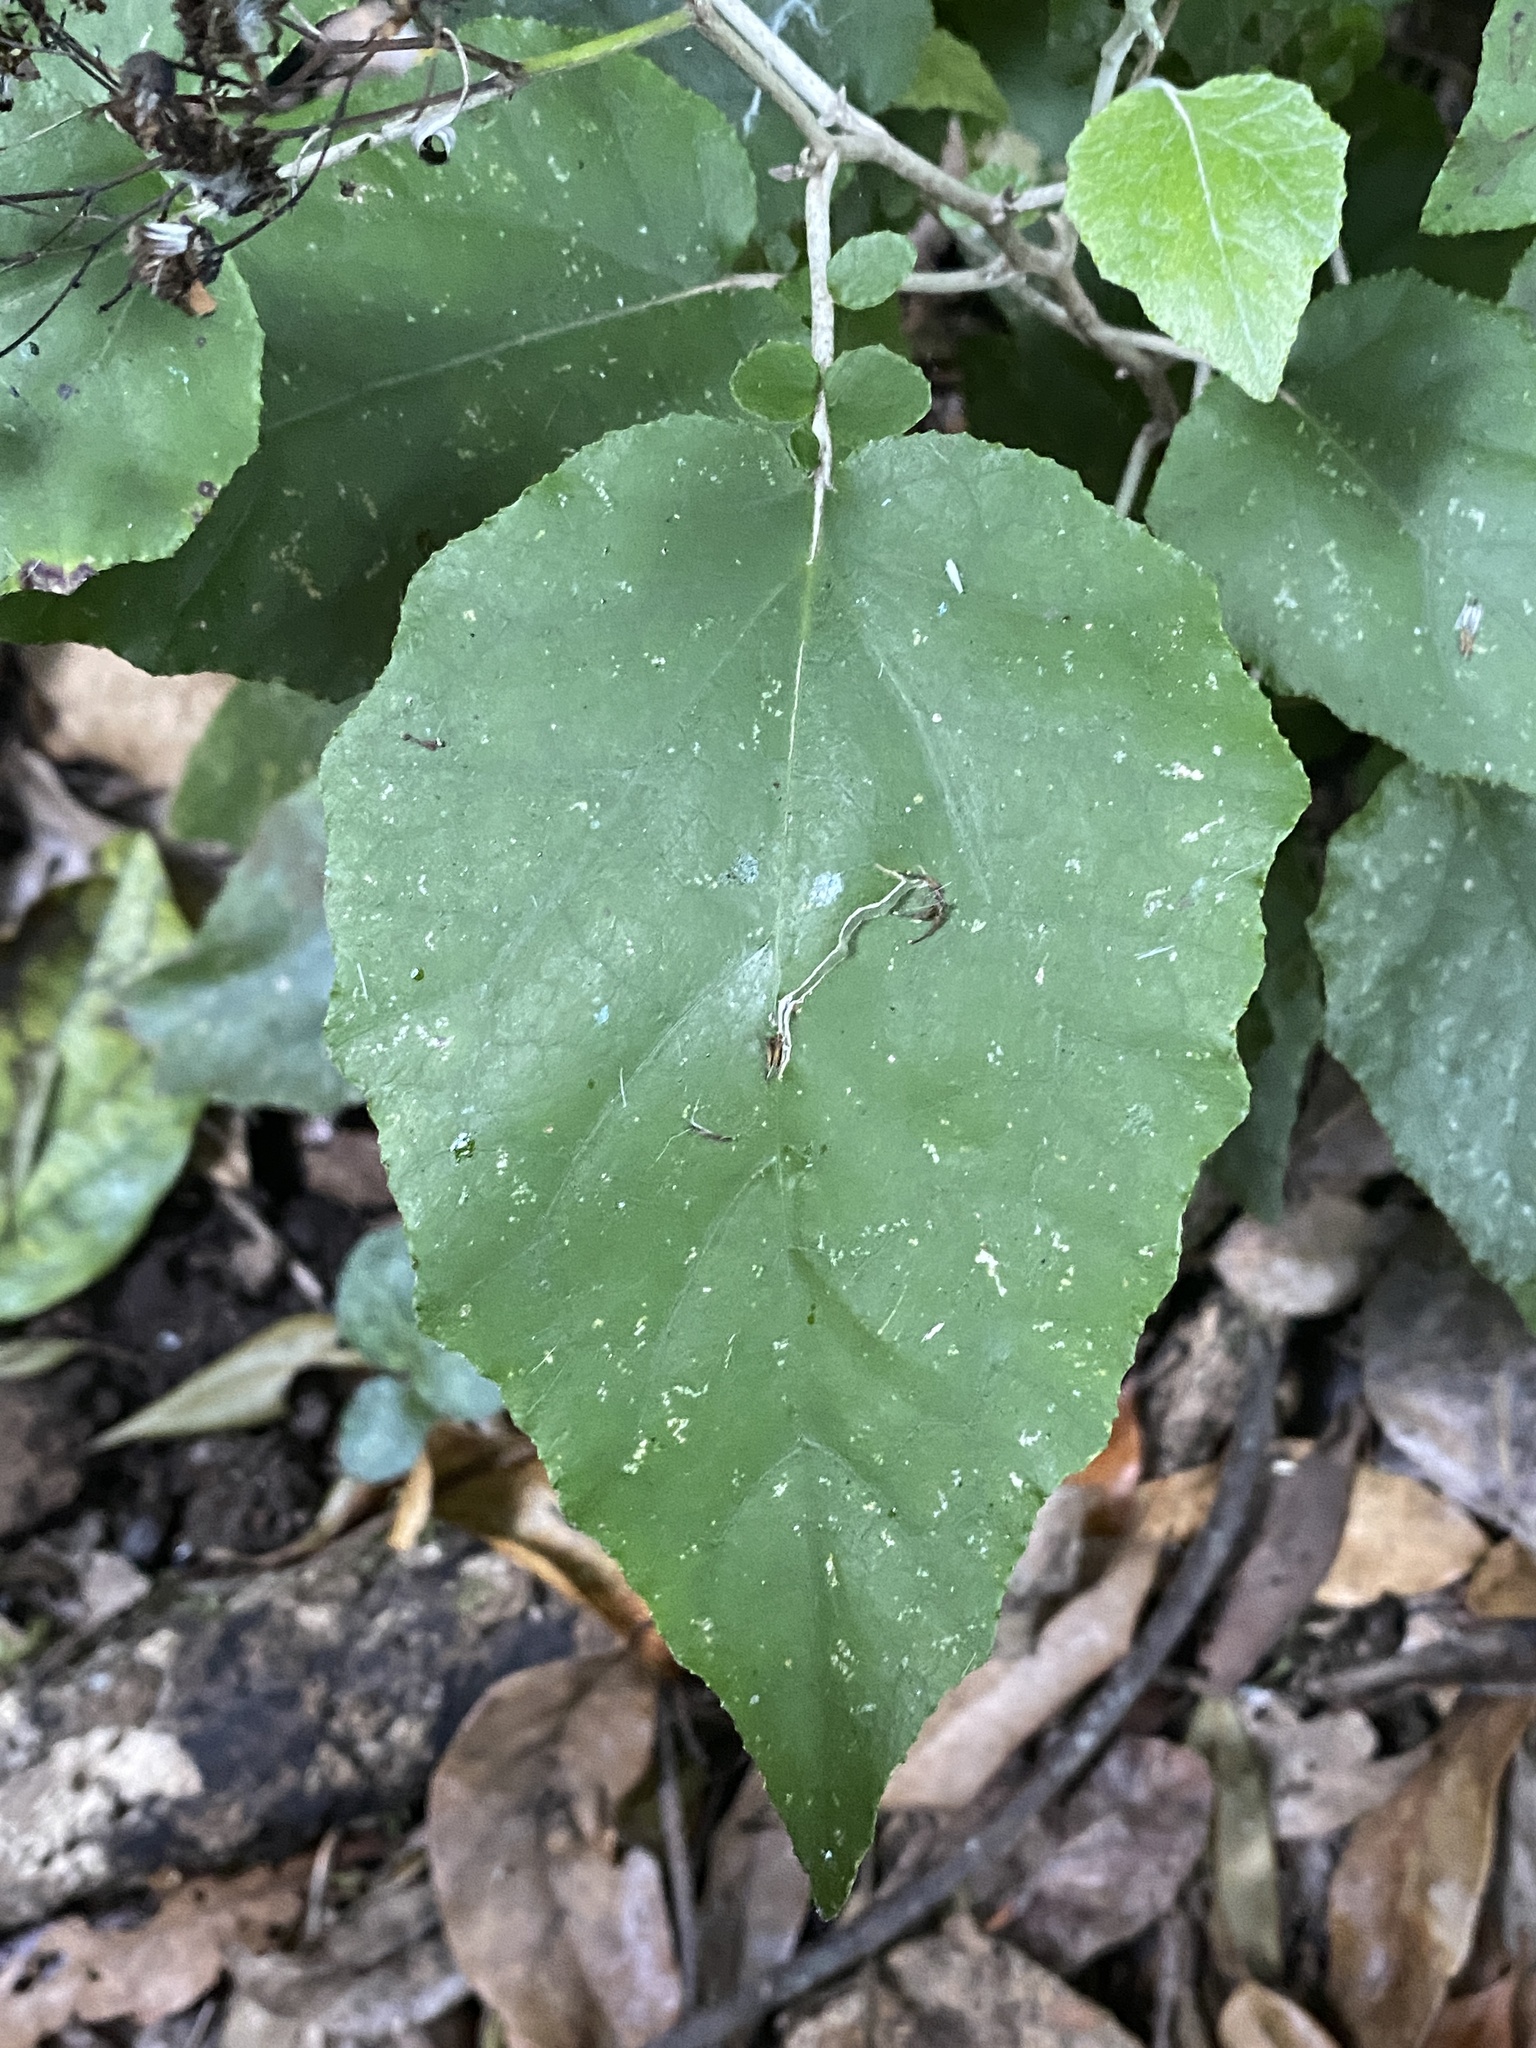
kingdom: Plantae
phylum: Tracheophyta
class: Magnoliopsida
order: Asterales
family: Asteraceae
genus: Pericallis
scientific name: Pericallis appendiculata
